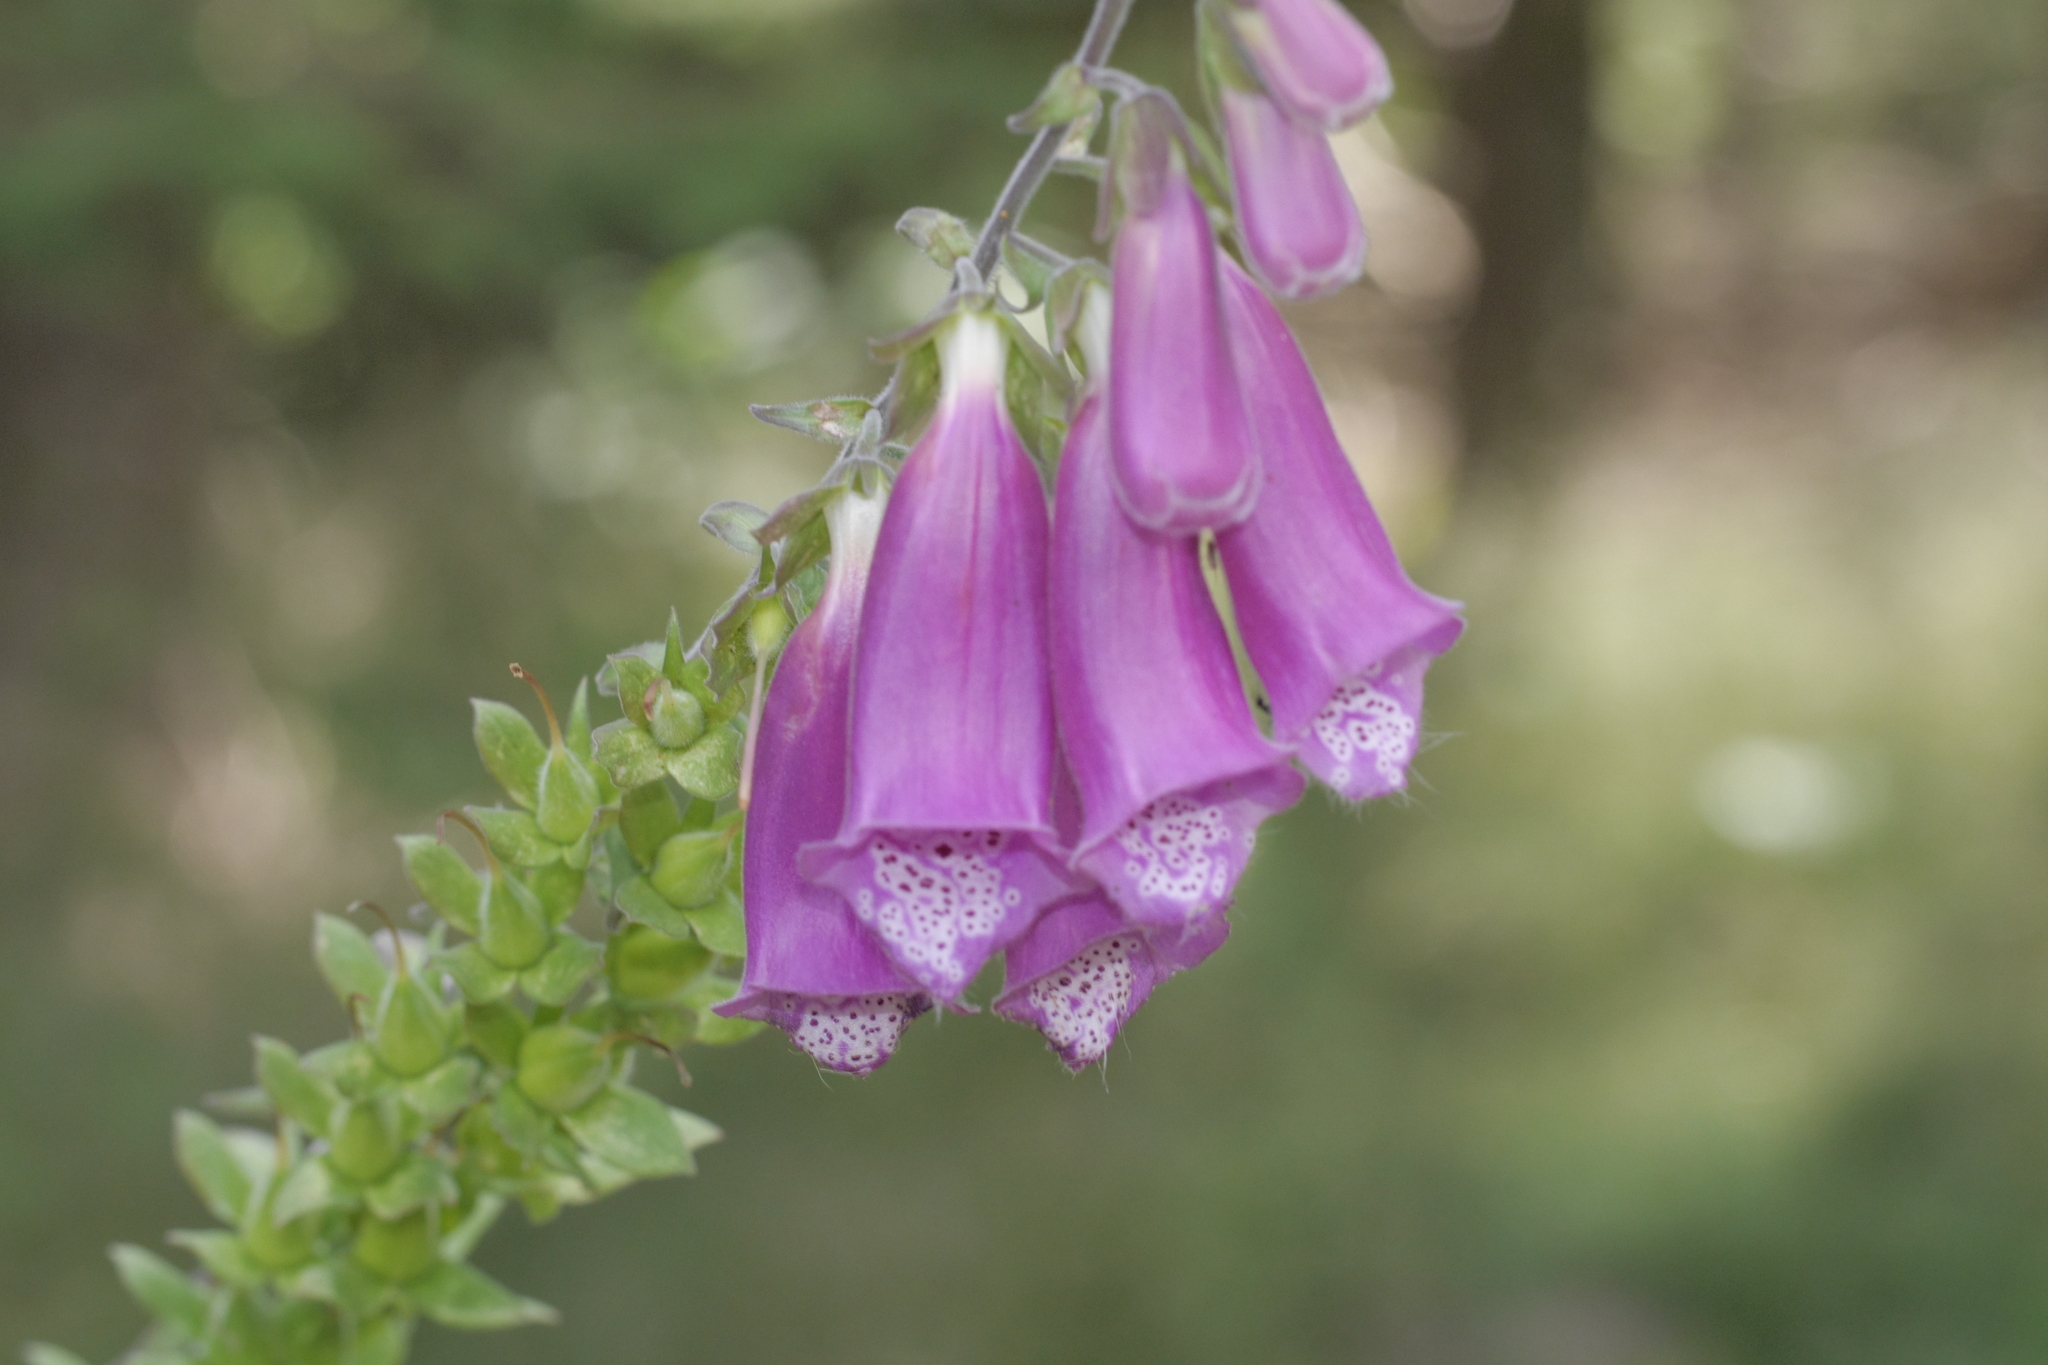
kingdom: Plantae
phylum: Tracheophyta
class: Magnoliopsida
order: Lamiales
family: Plantaginaceae
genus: Digitalis
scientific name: Digitalis purpurea
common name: Foxglove
